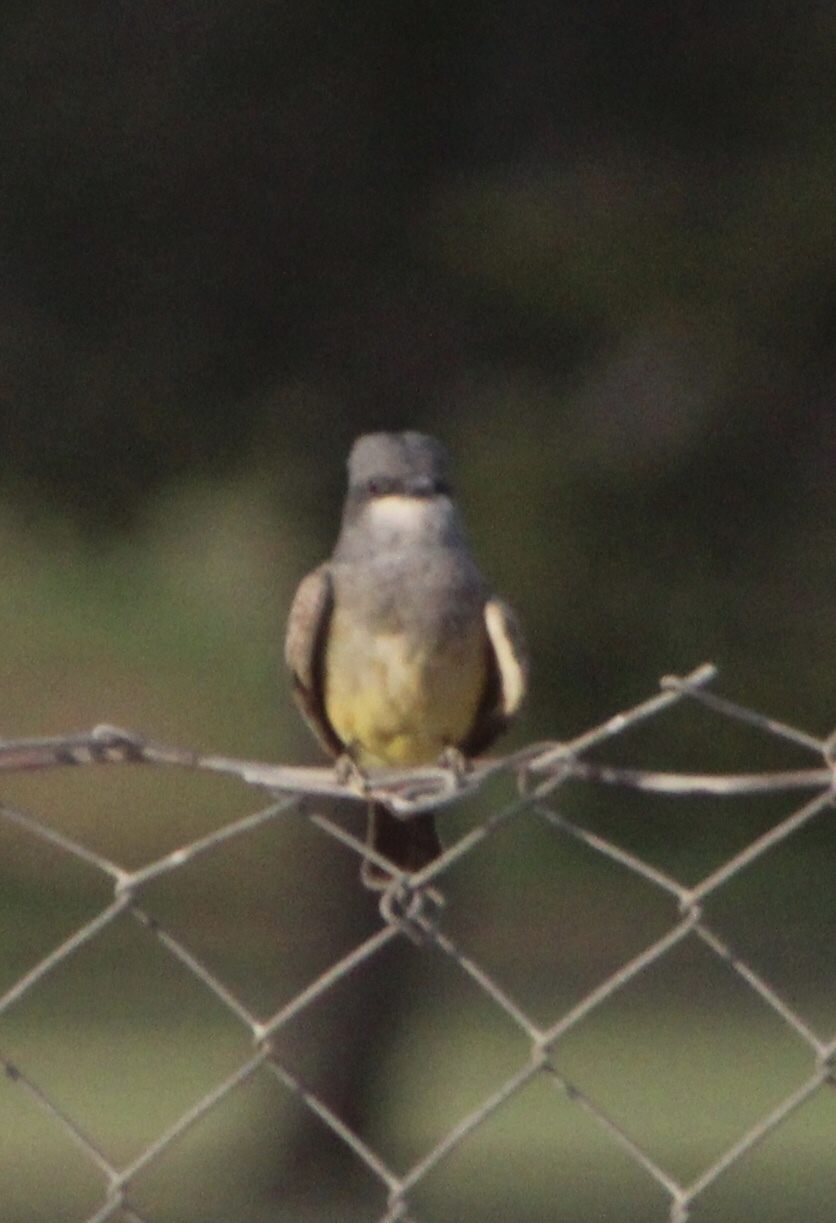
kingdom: Animalia
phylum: Chordata
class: Aves
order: Passeriformes
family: Tyrannidae
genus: Tyrannus
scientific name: Tyrannus vociferans
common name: Cassin's kingbird
